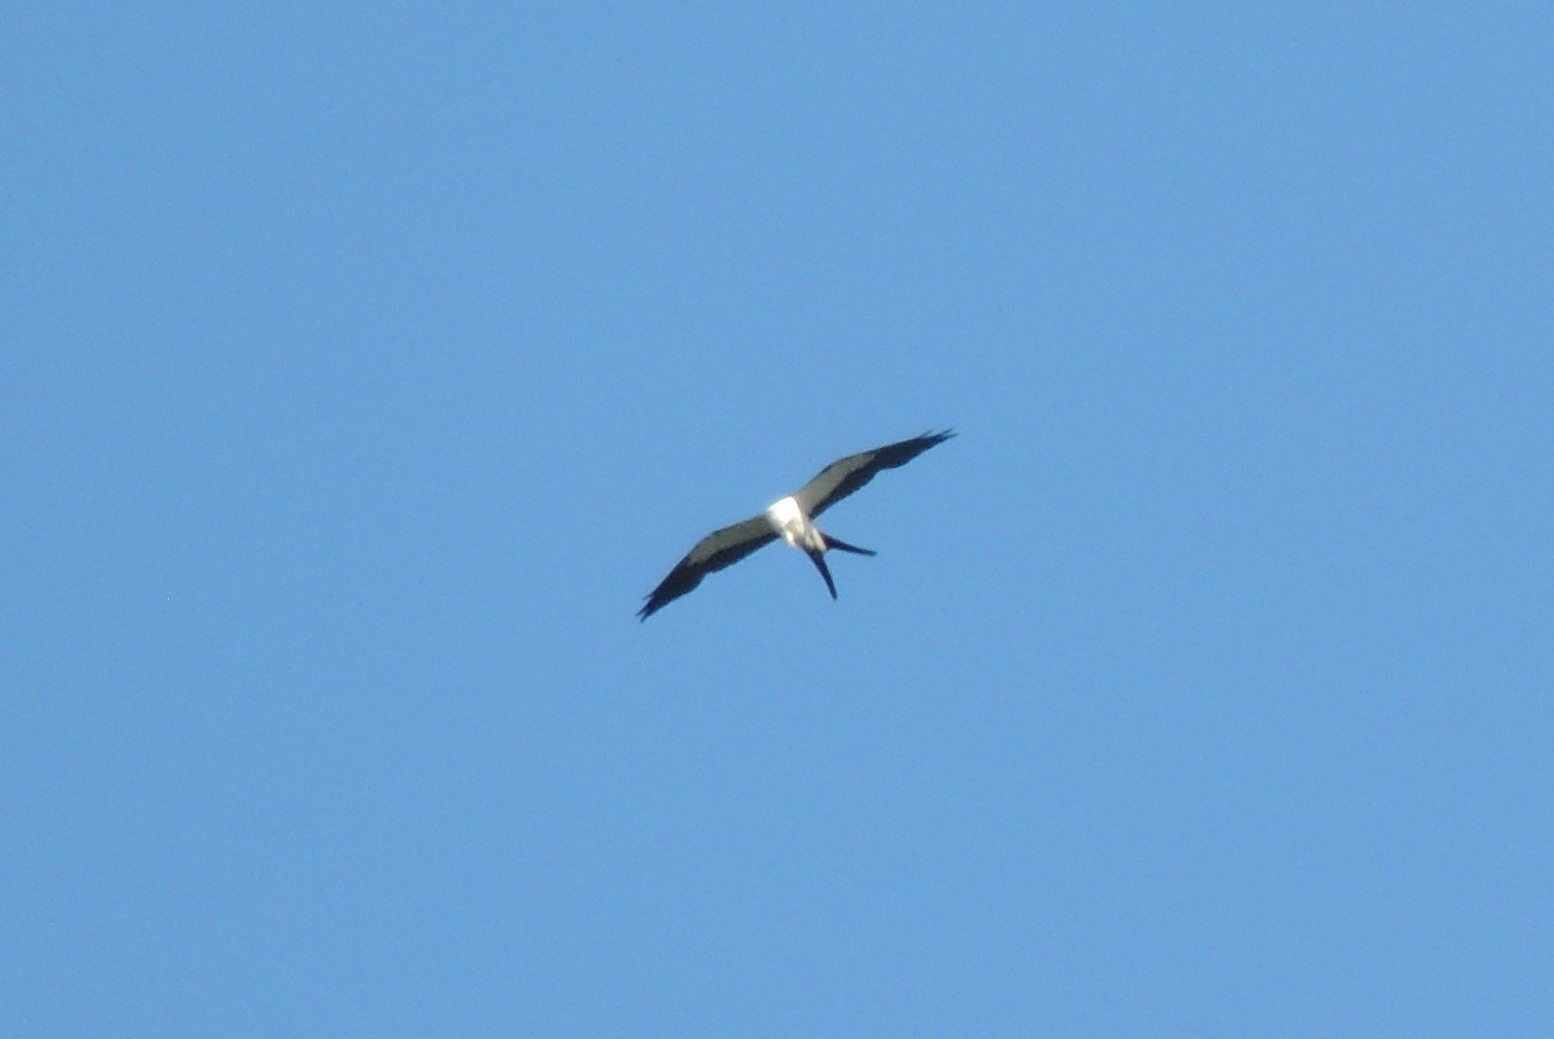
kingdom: Animalia
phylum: Chordata
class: Aves
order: Accipitriformes
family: Accipitridae
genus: Elanoides
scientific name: Elanoides forficatus
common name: Swallow-tailed kite
